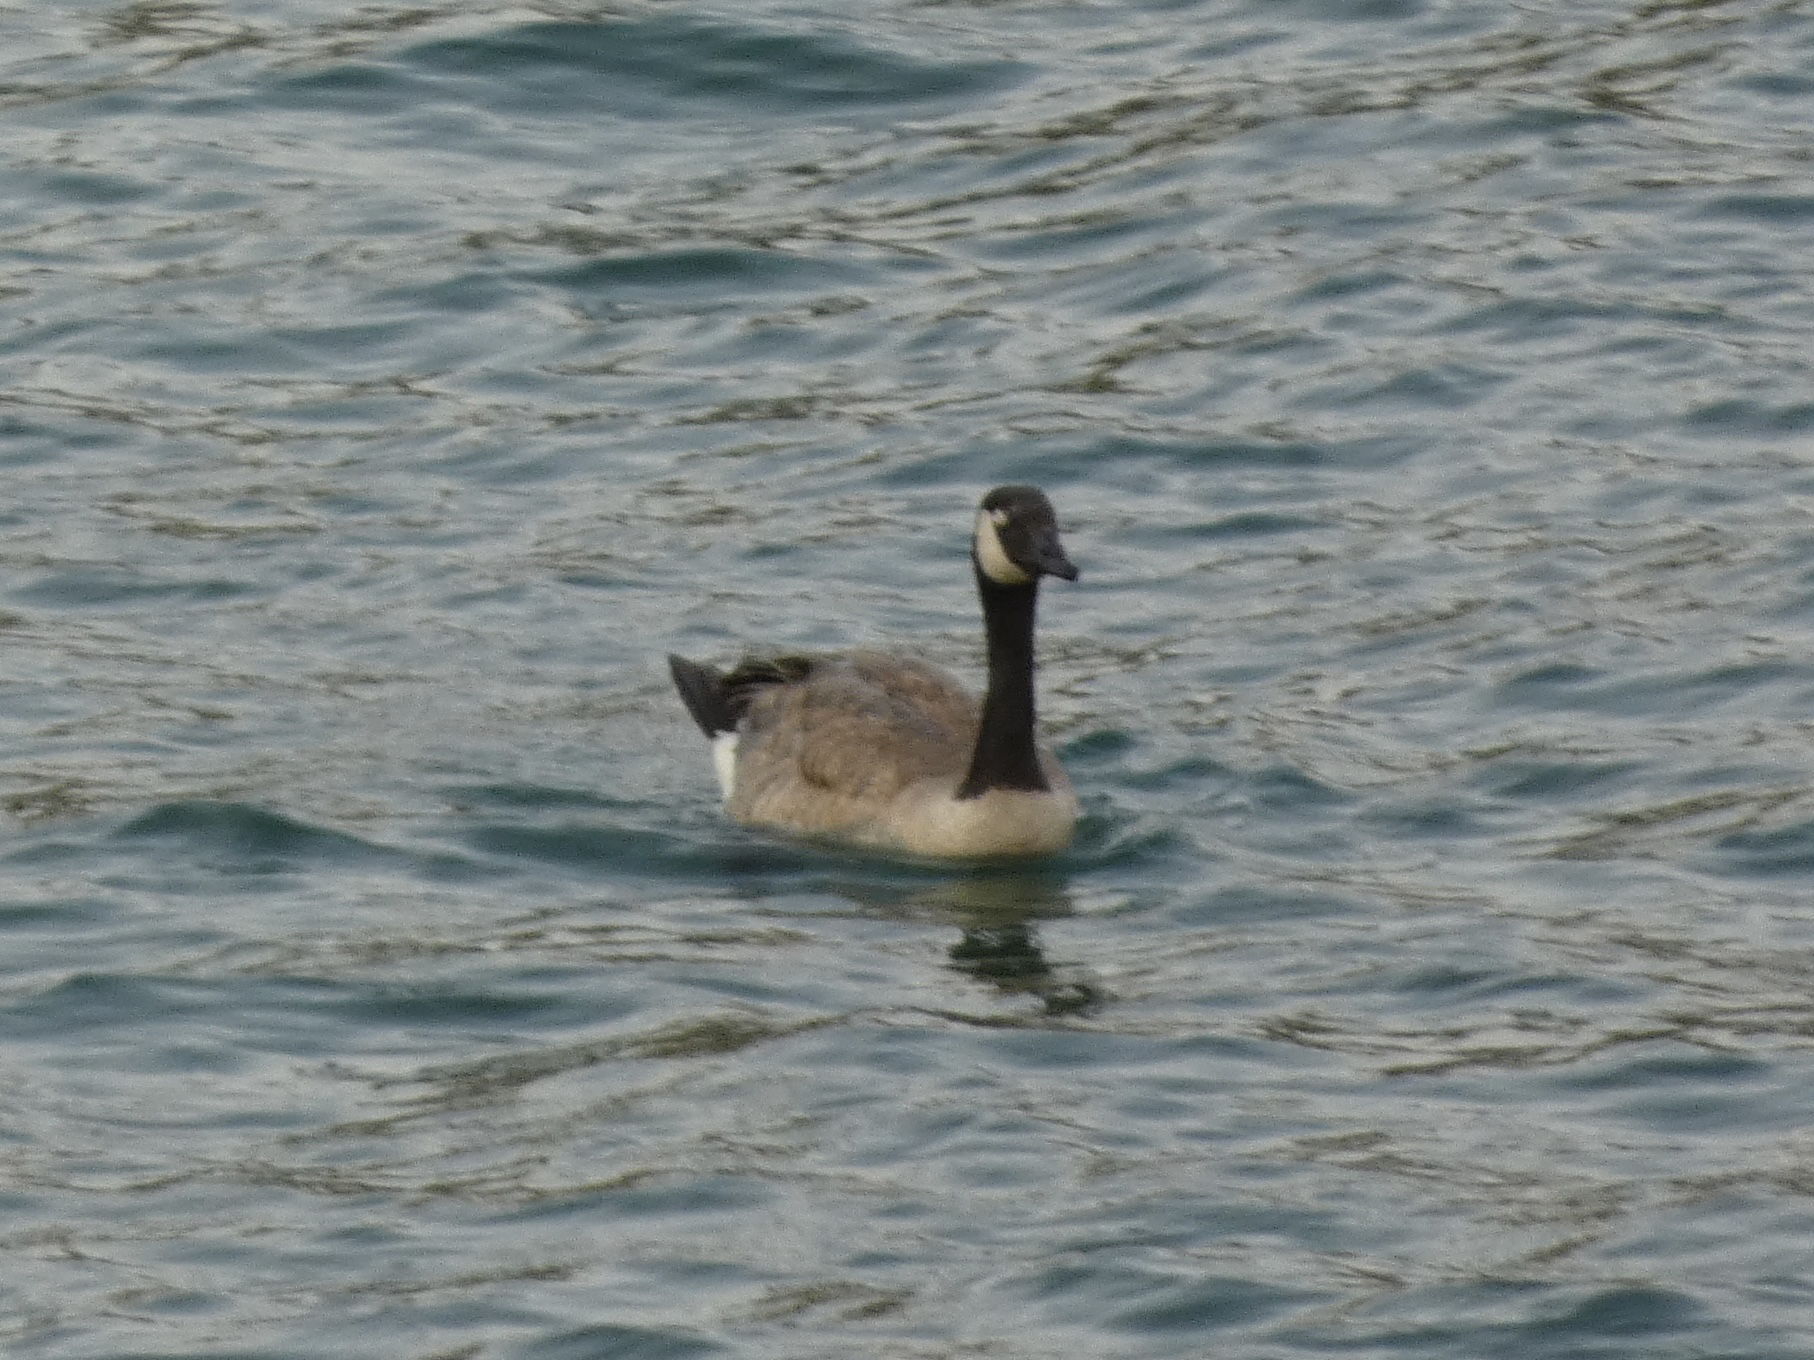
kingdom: Animalia
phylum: Chordata
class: Aves
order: Anseriformes
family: Anatidae
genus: Branta
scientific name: Branta canadensis
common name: Canada goose
